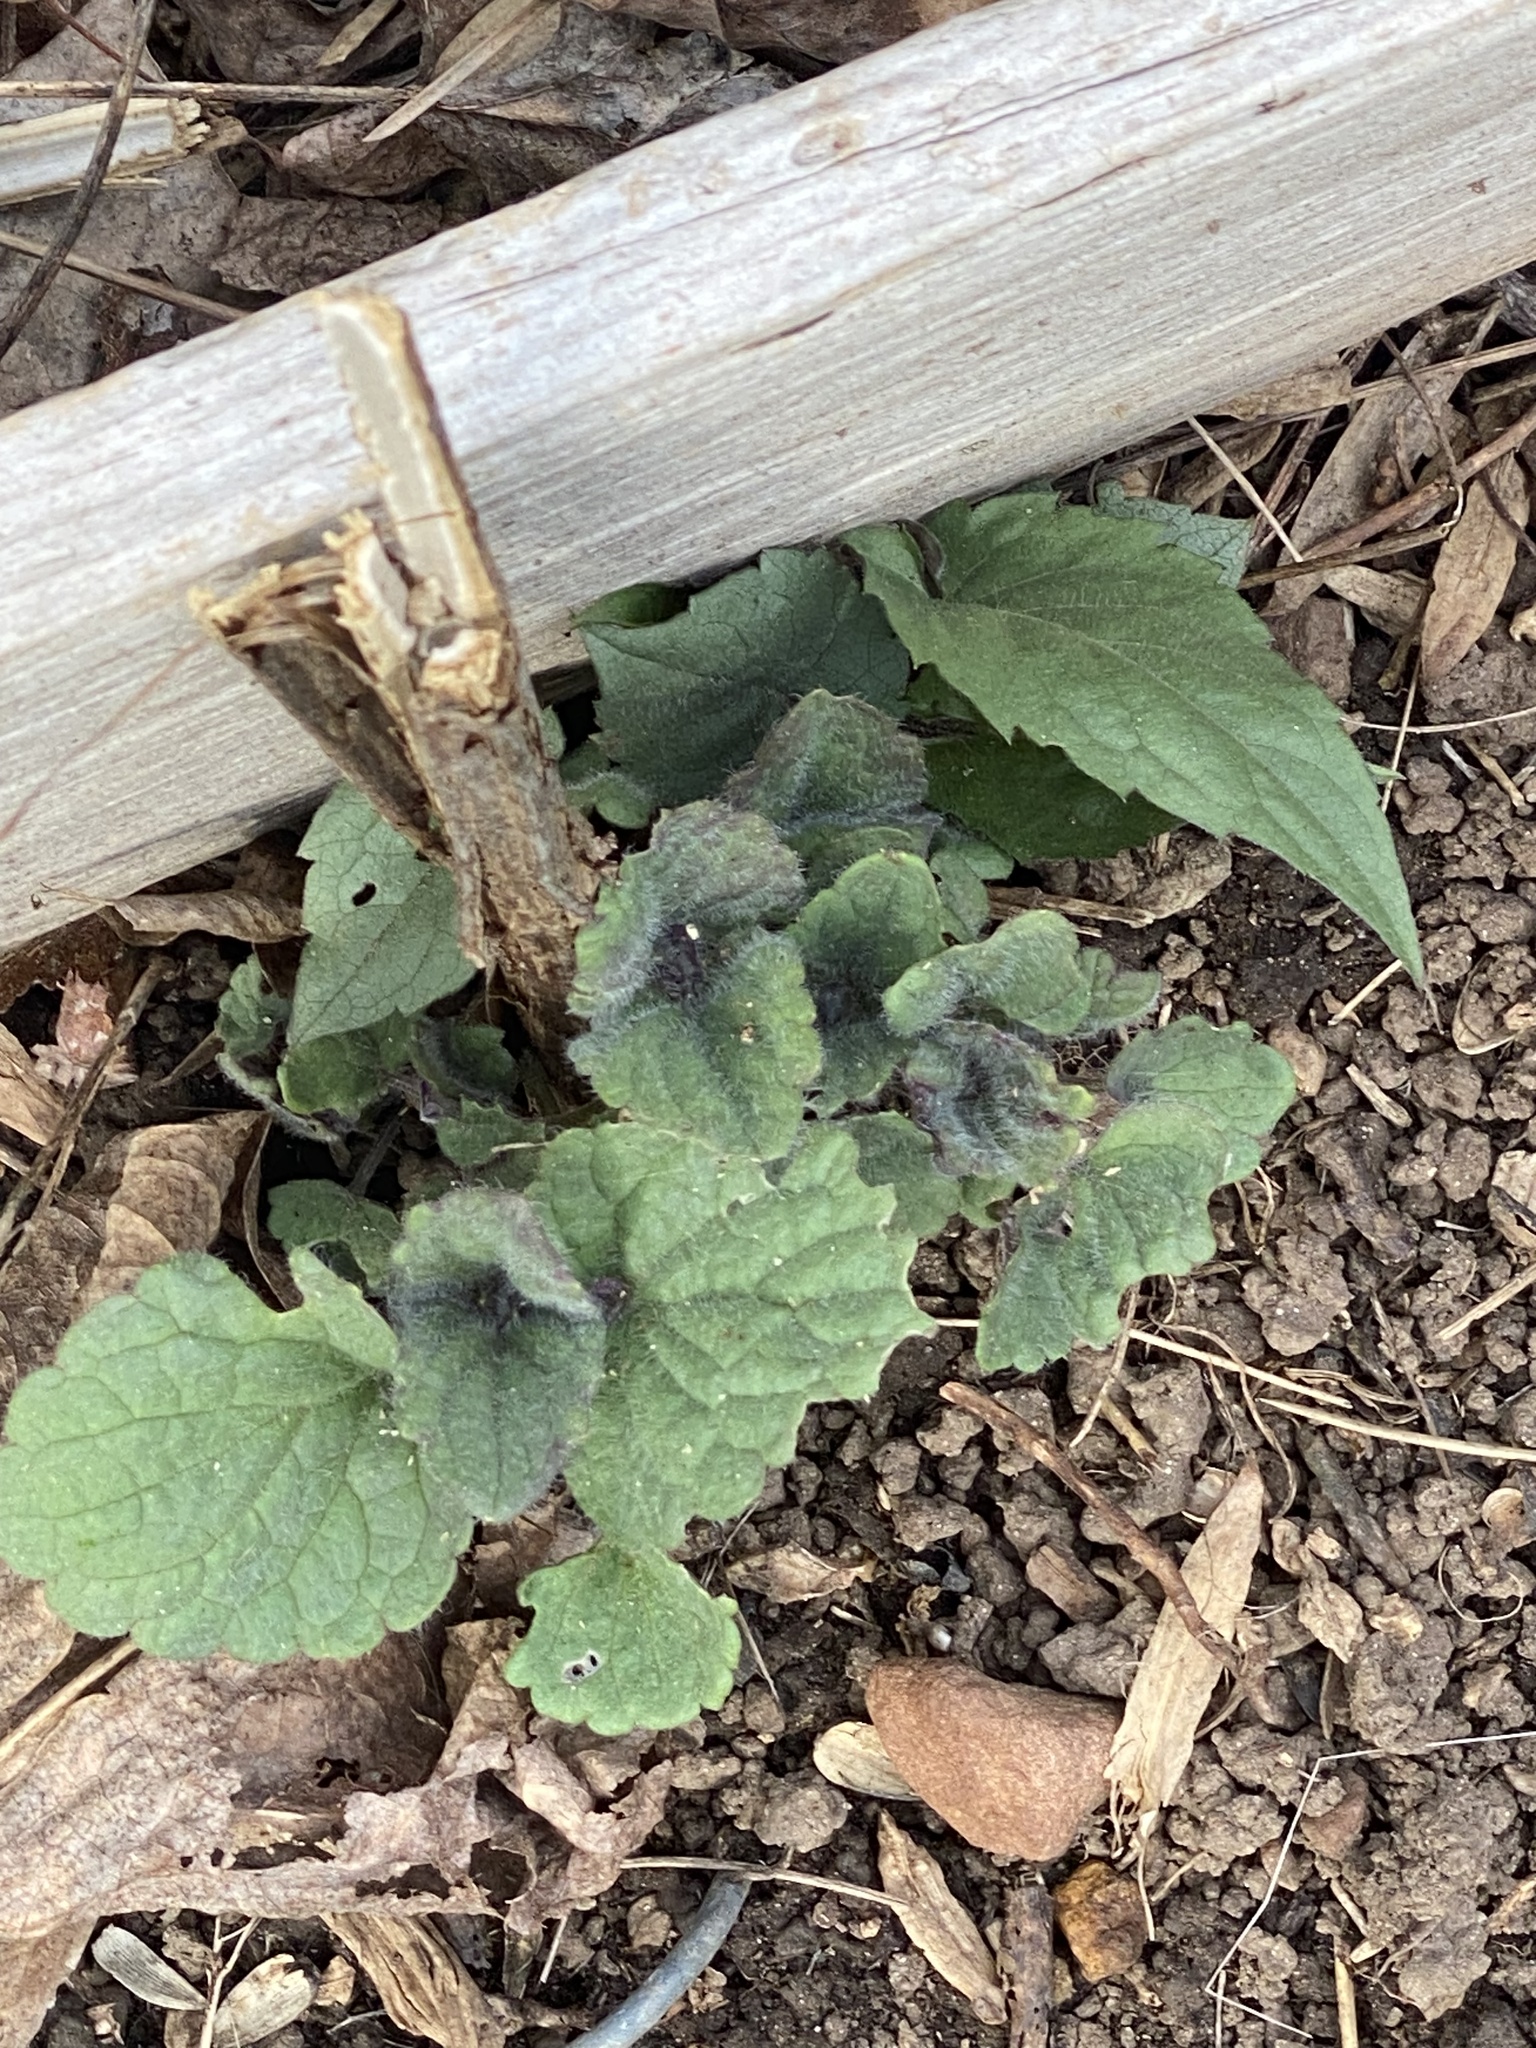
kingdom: Plantae
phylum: Tracheophyta
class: Magnoliopsida
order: Lamiales
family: Lamiaceae
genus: Agastache
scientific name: Agastache foeniculum
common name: Anise hyssop
